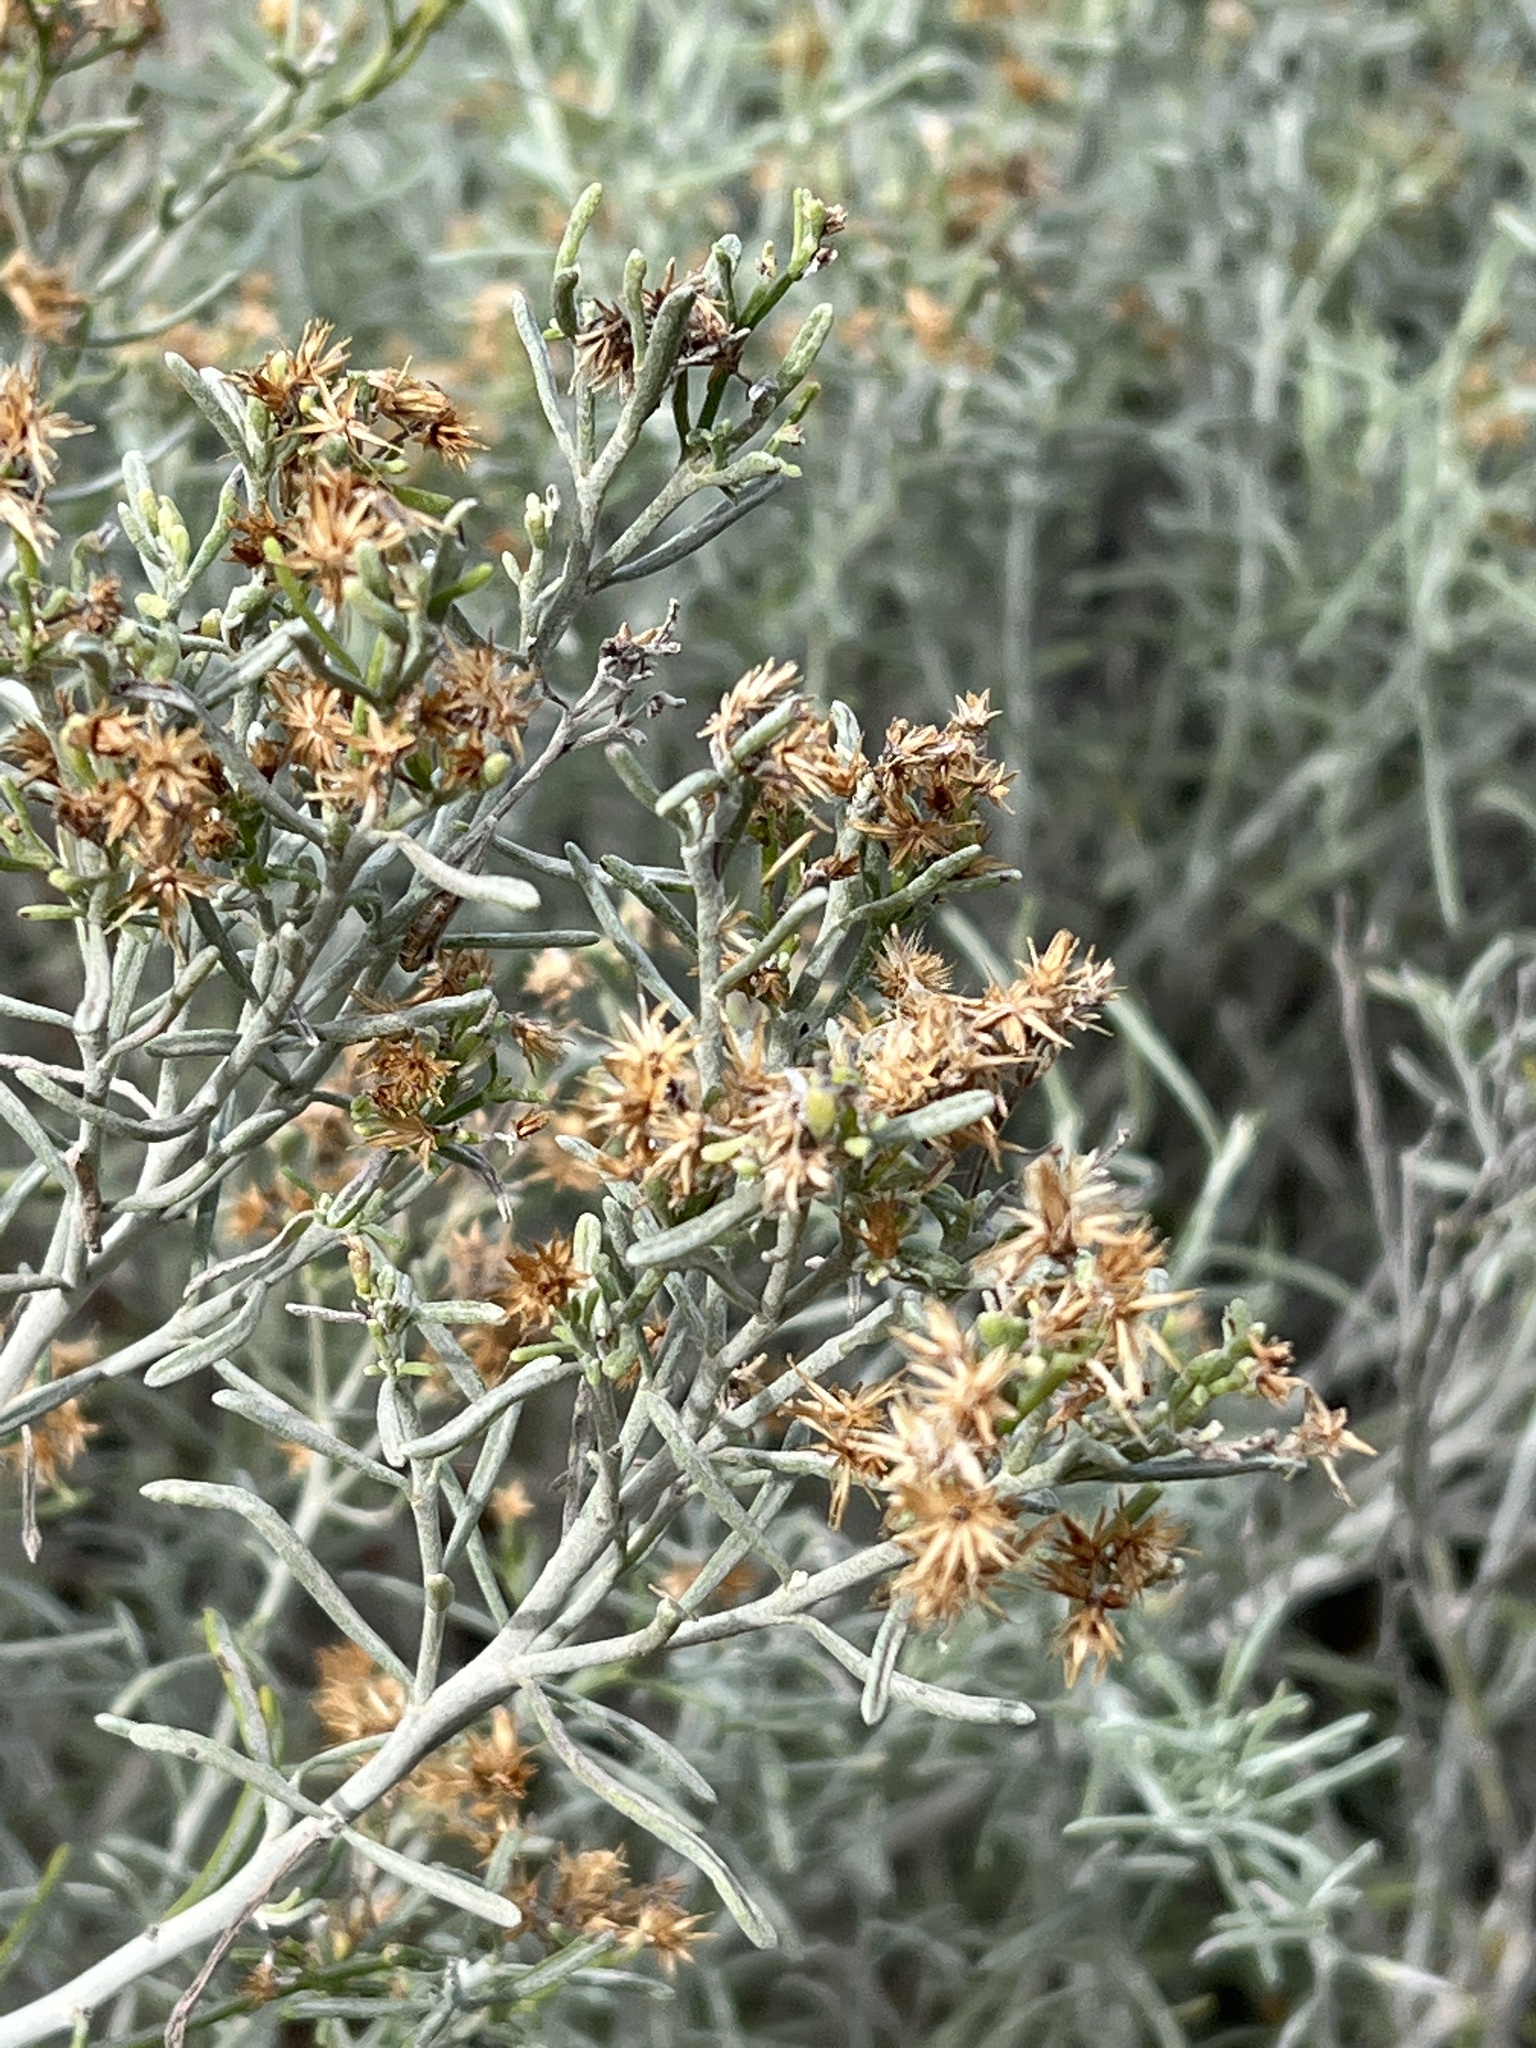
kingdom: Plantae
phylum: Tracheophyta
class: Magnoliopsida
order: Asterales
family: Asteraceae
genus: Schizogyne
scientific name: Schizogyne sericea
